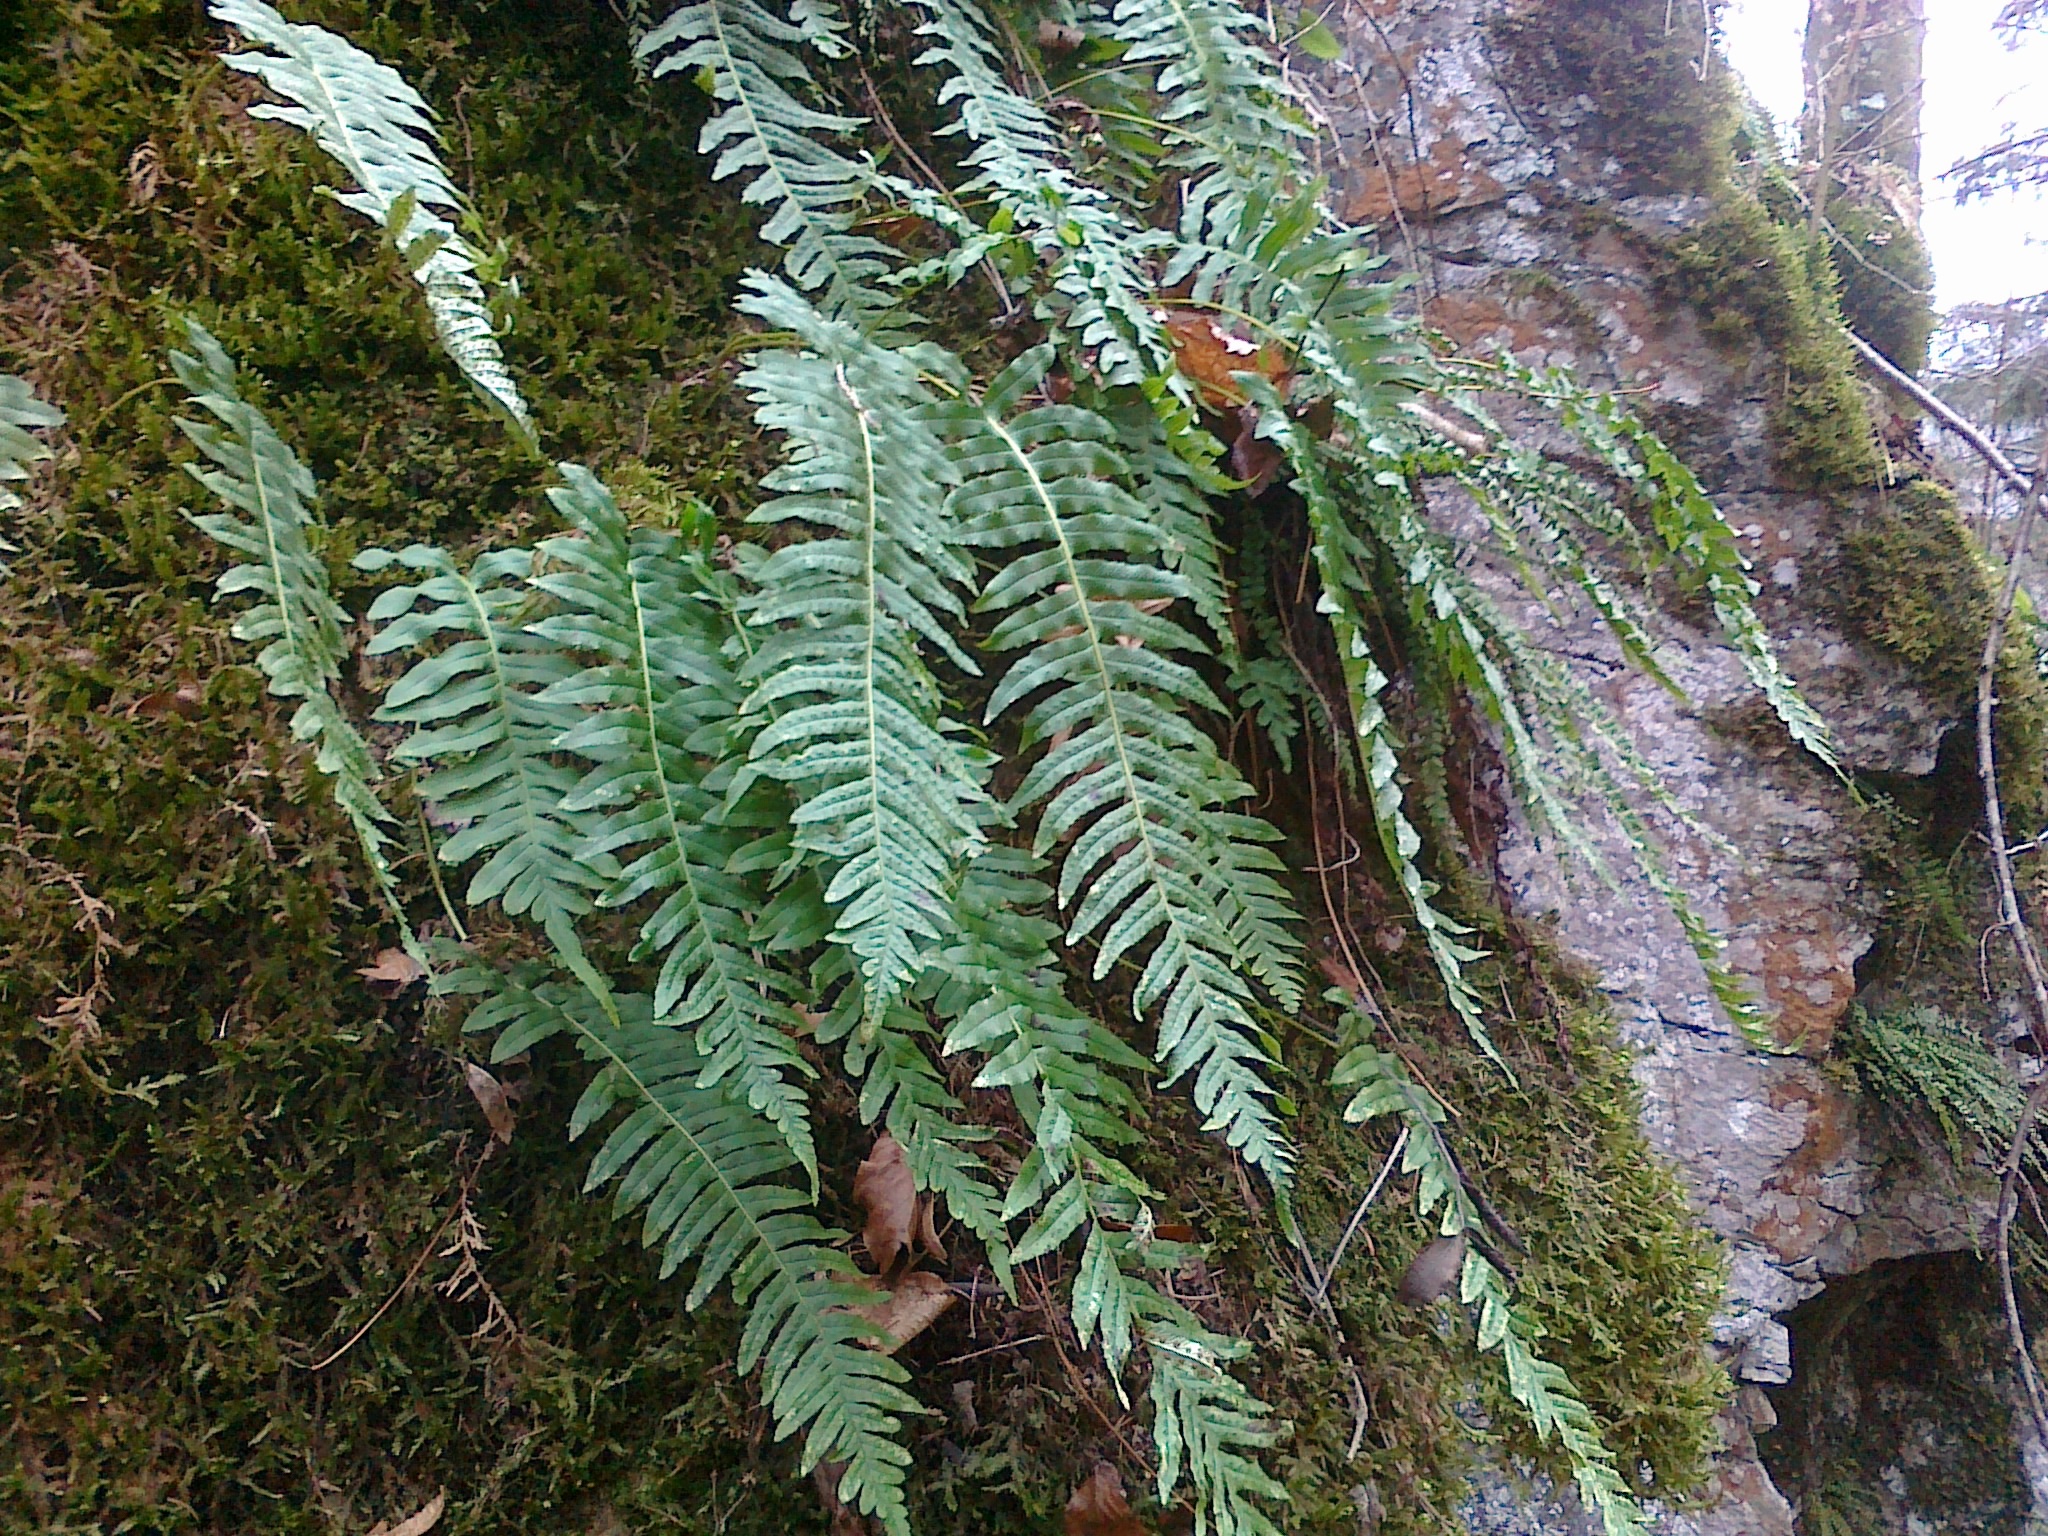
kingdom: Plantae
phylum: Tracheophyta
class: Polypodiopsida
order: Polypodiales
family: Polypodiaceae
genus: Polypodium
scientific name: Polypodium interjectum
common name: Intermediate polypody
